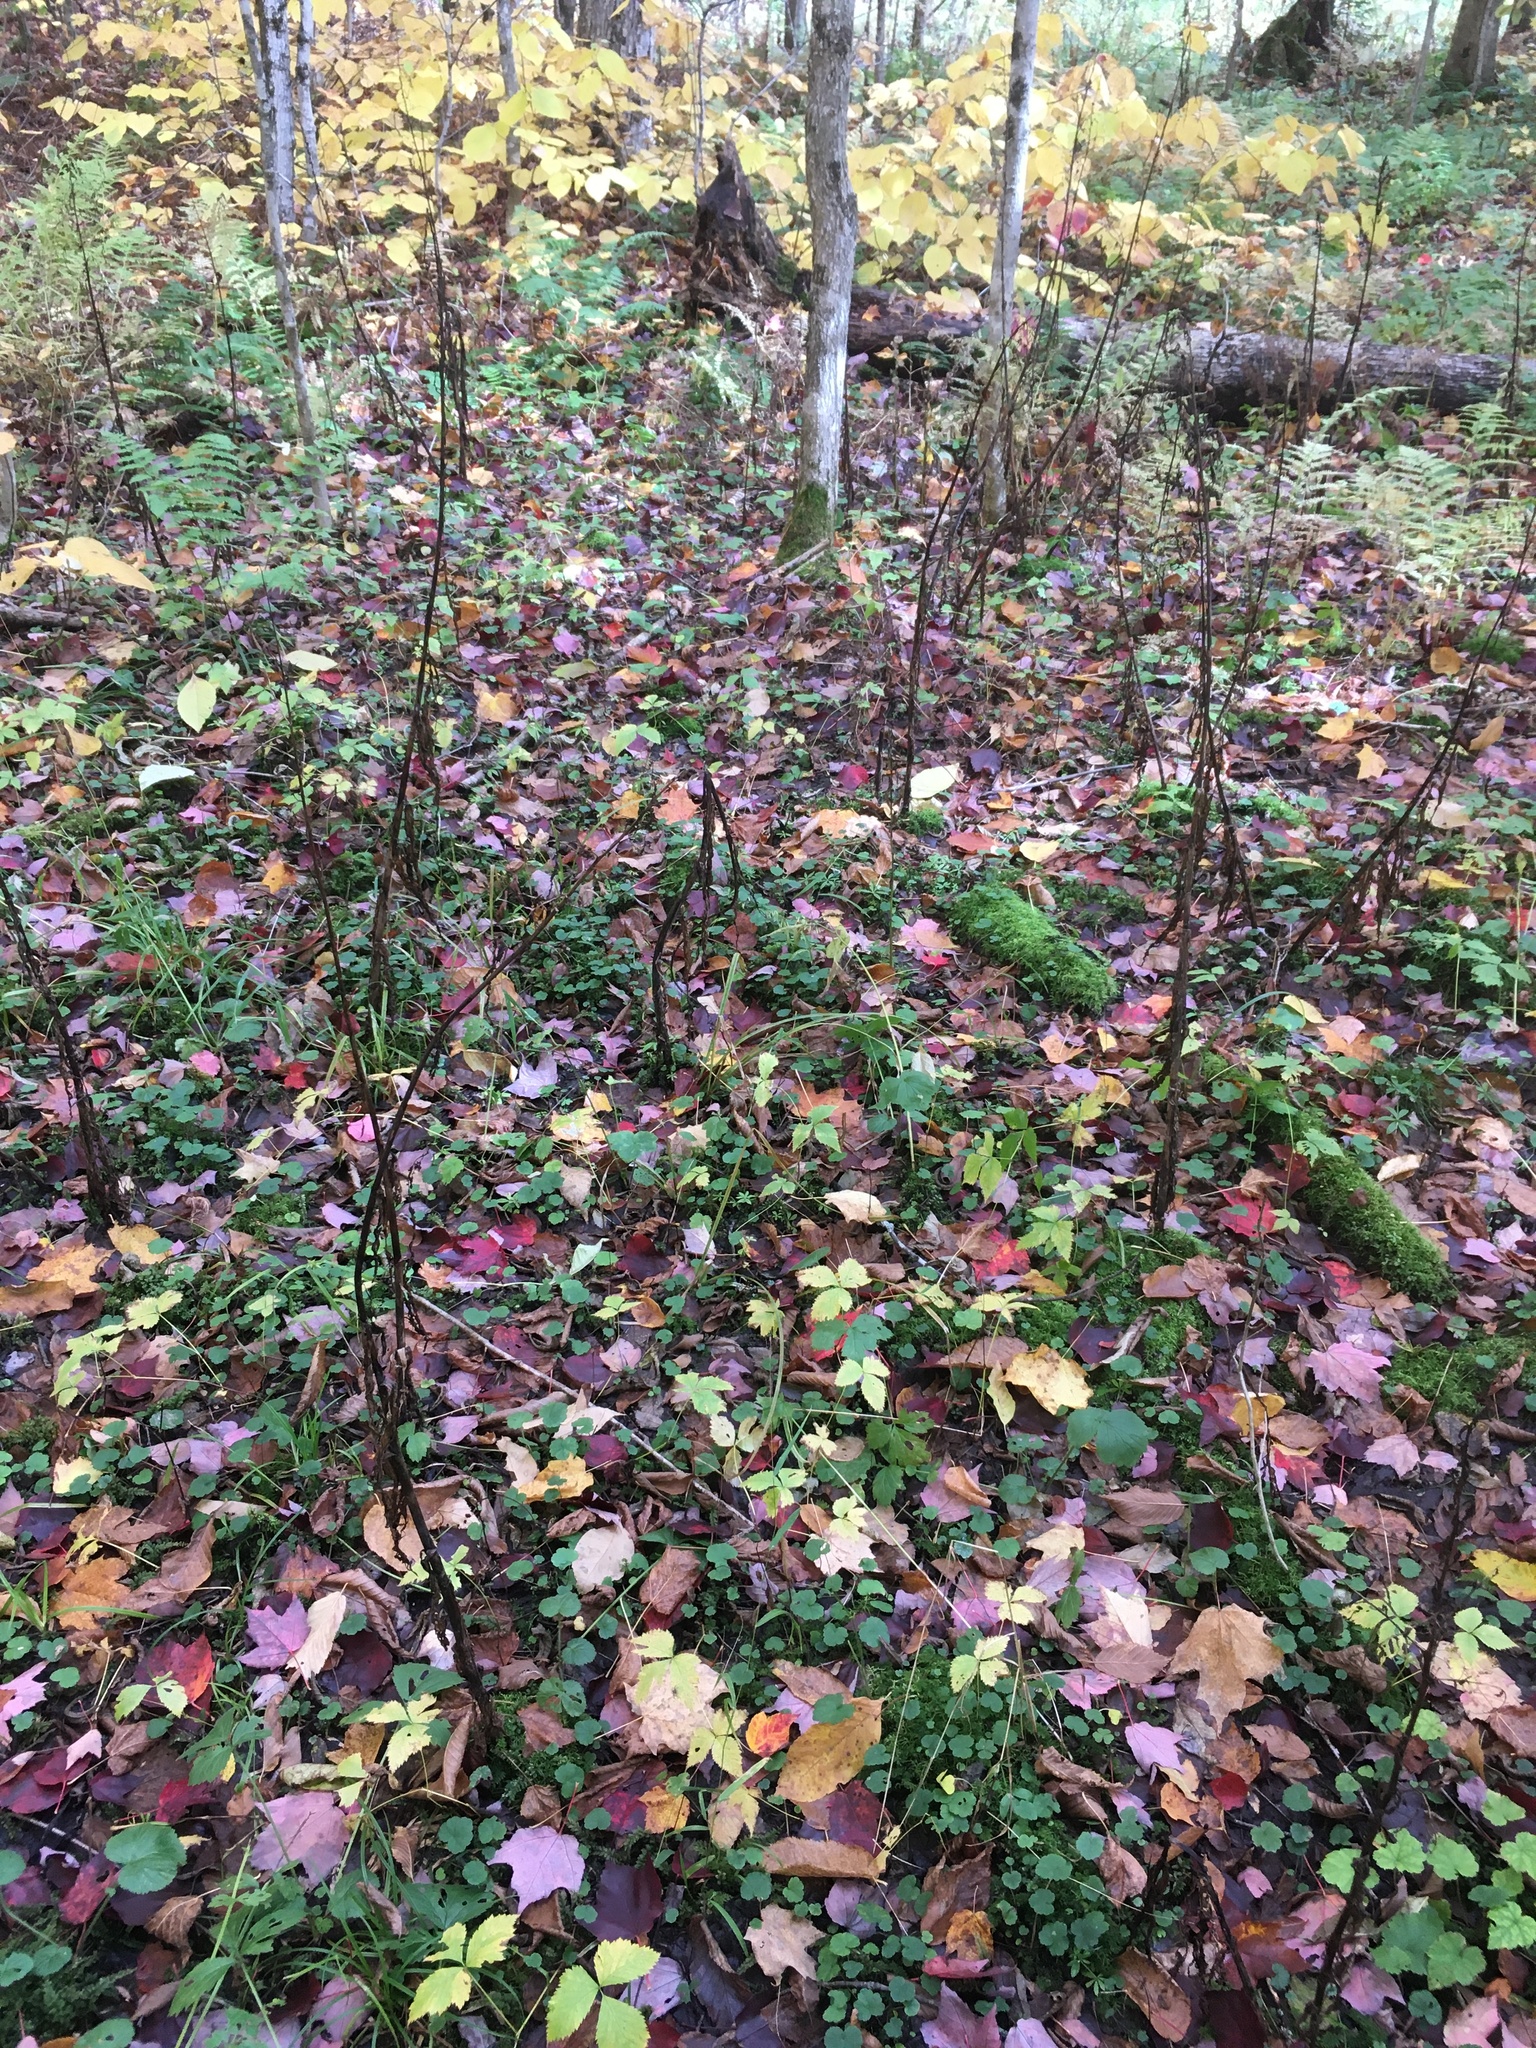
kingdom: Plantae
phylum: Tracheophyta
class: Liliopsida
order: Liliales
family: Melanthiaceae
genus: Veratrum
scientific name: Veratrum viride
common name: American false hellebore
